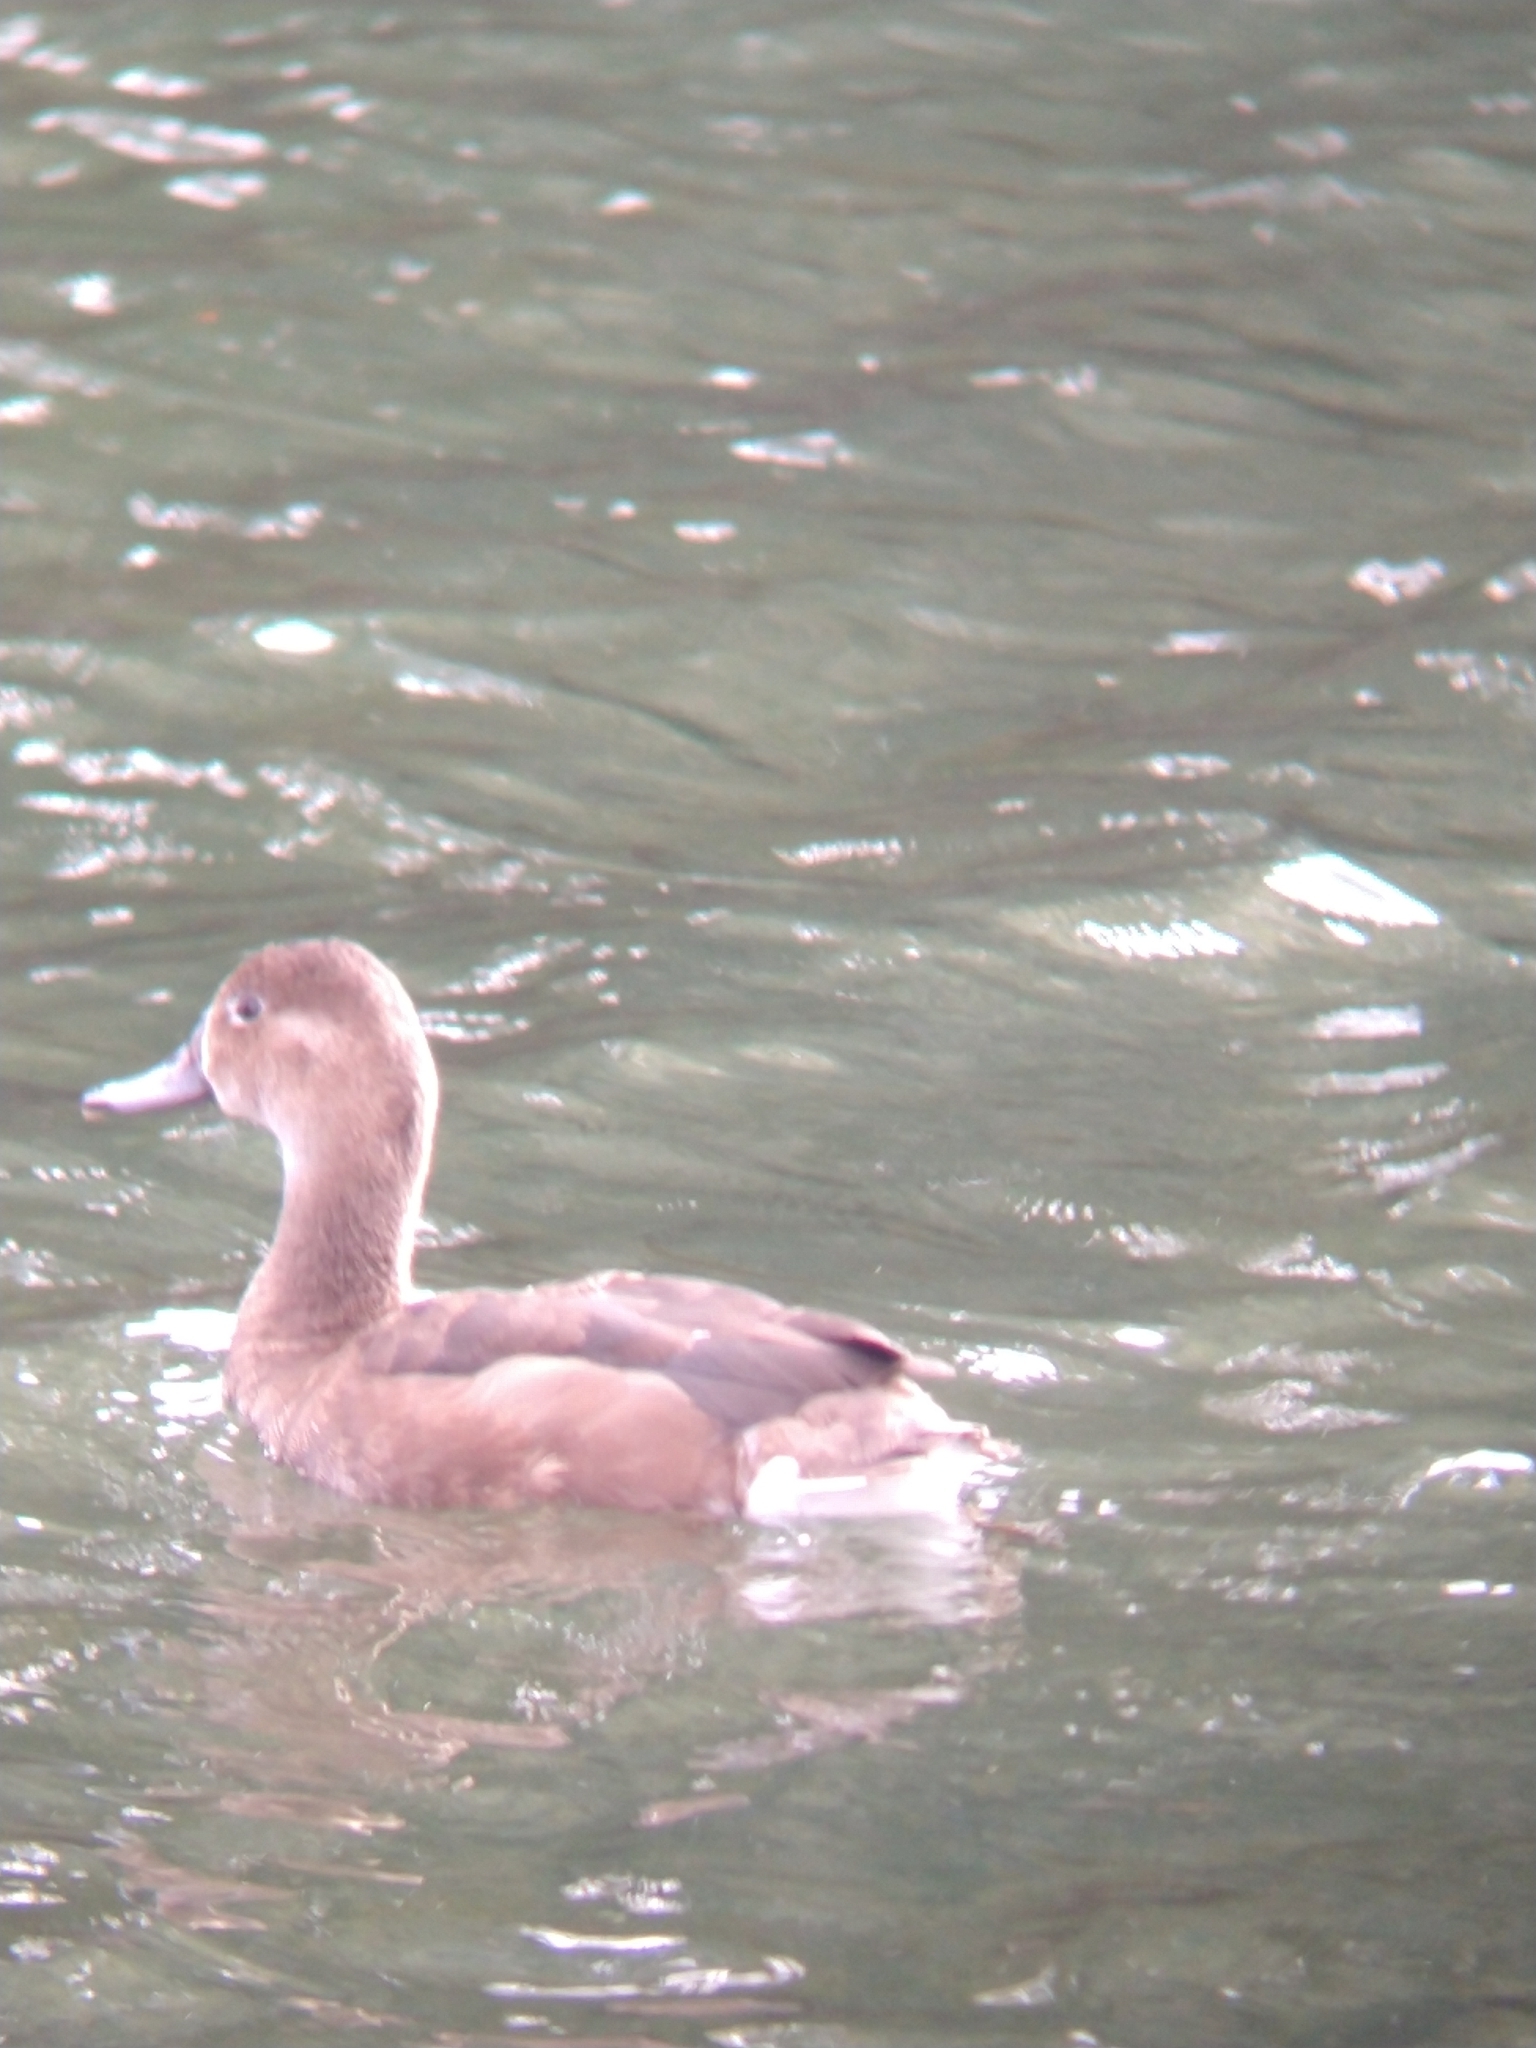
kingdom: Animalia
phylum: Chordata
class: Aves
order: Anseriformes
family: Anatidae
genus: Netta
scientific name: Netta peposaca
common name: Rosy-billed pochard
